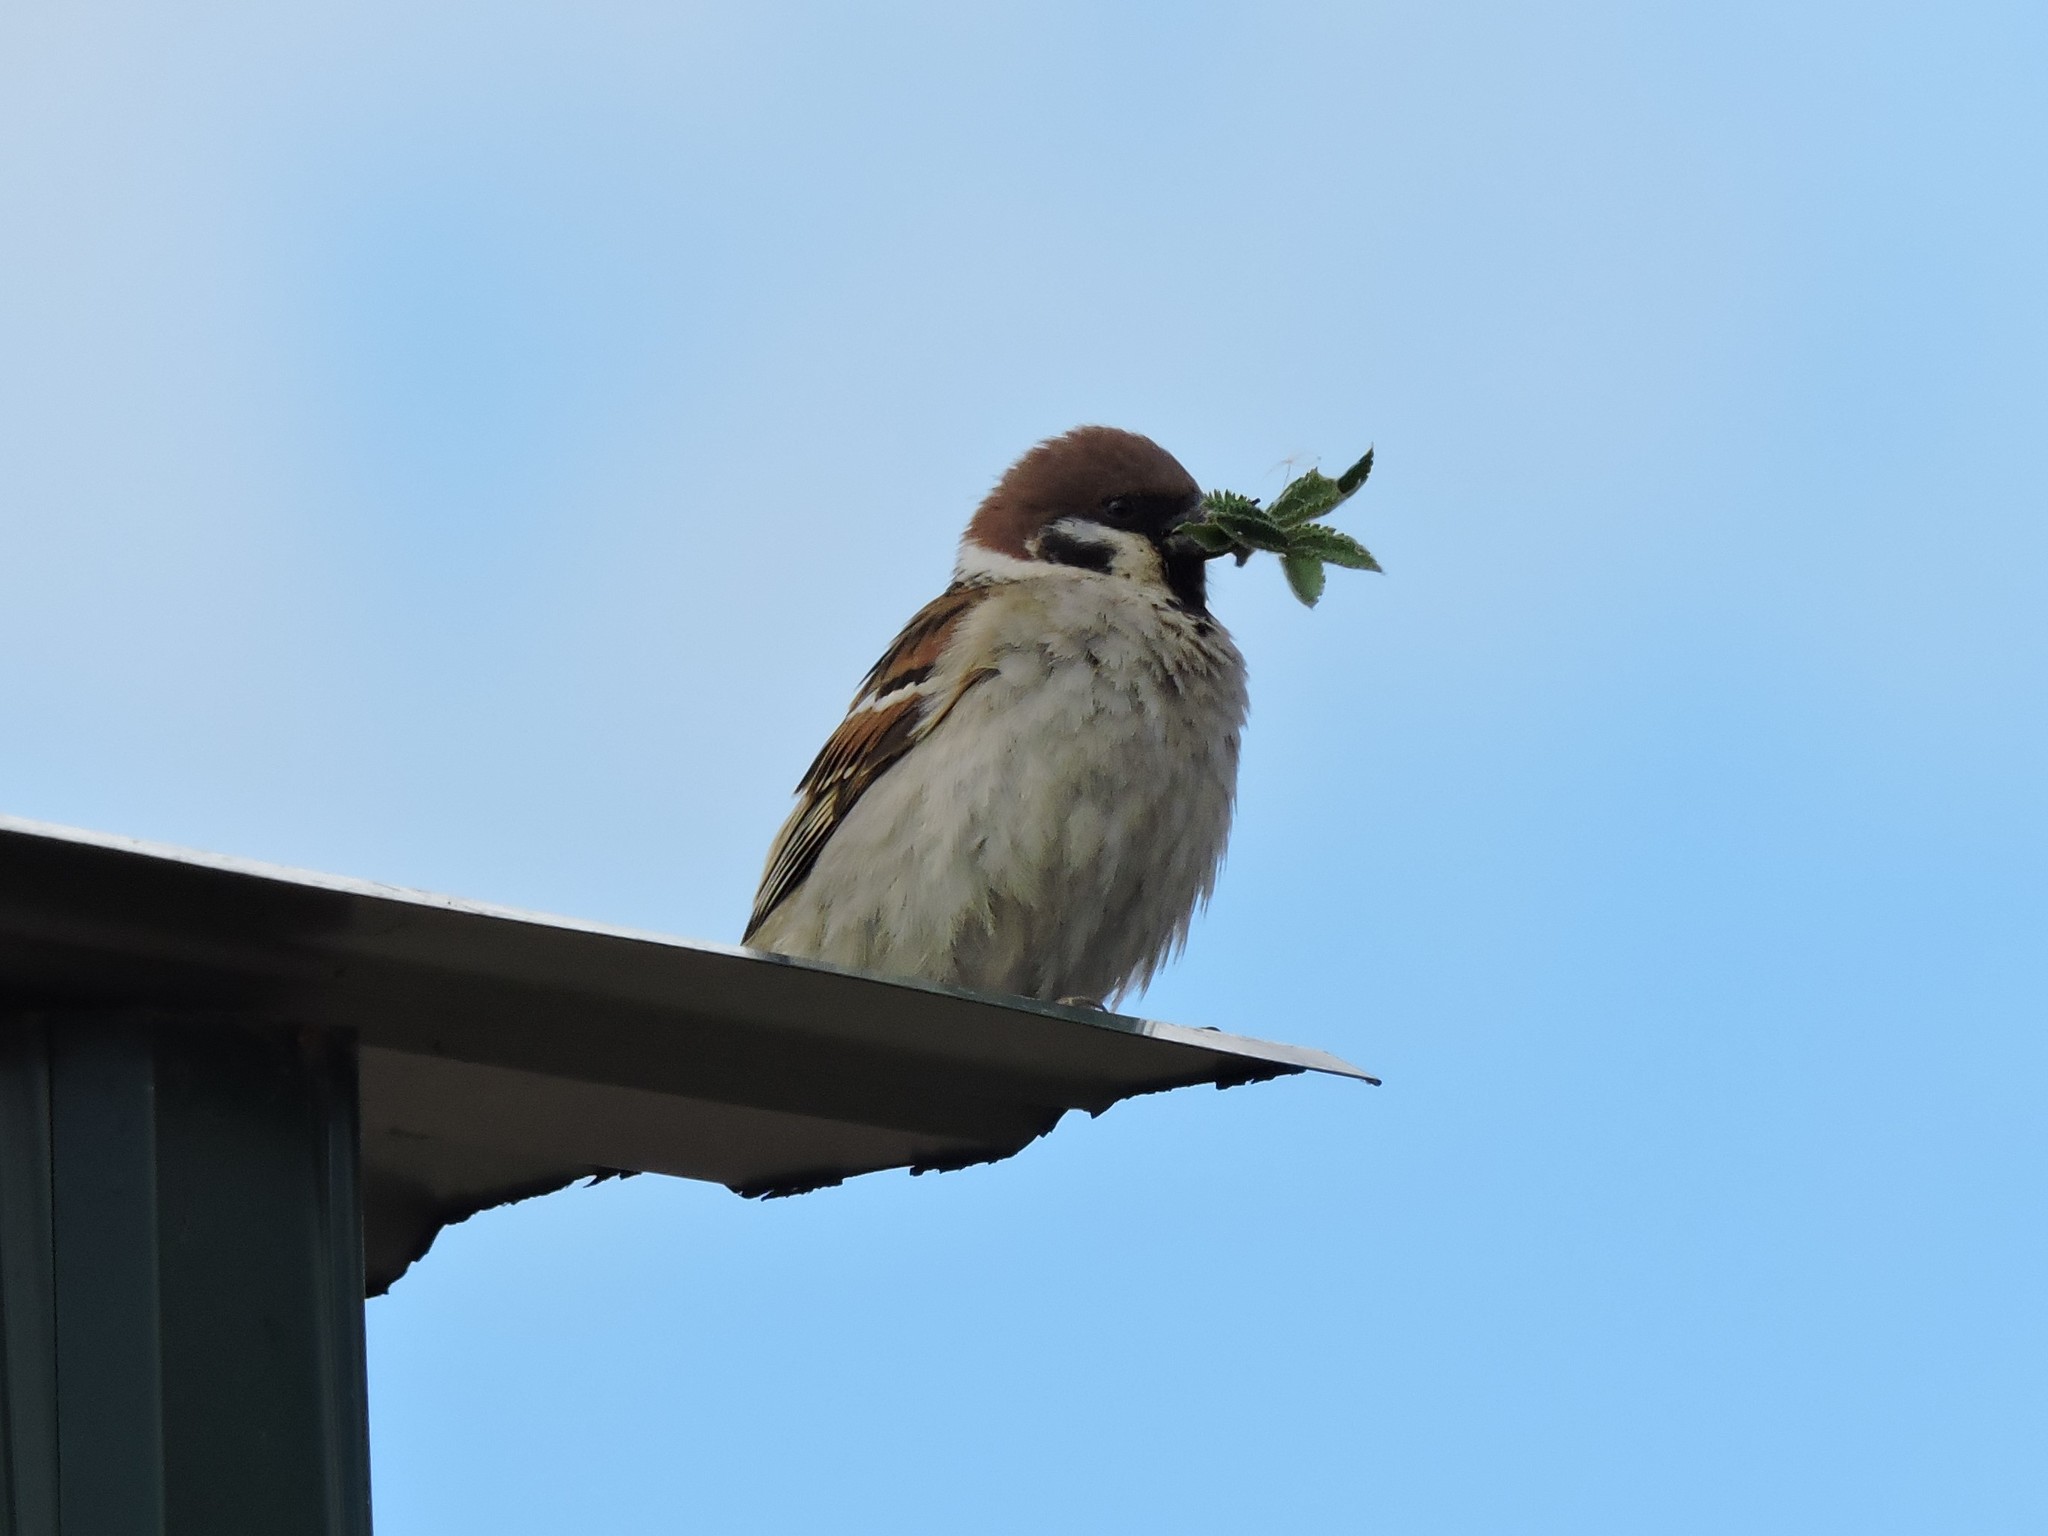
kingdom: Animalia
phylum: Chordata
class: Aves
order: Passeriformes
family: Passeridae
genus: Passer
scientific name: Passer montanus
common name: Eurasian tree sparrow
